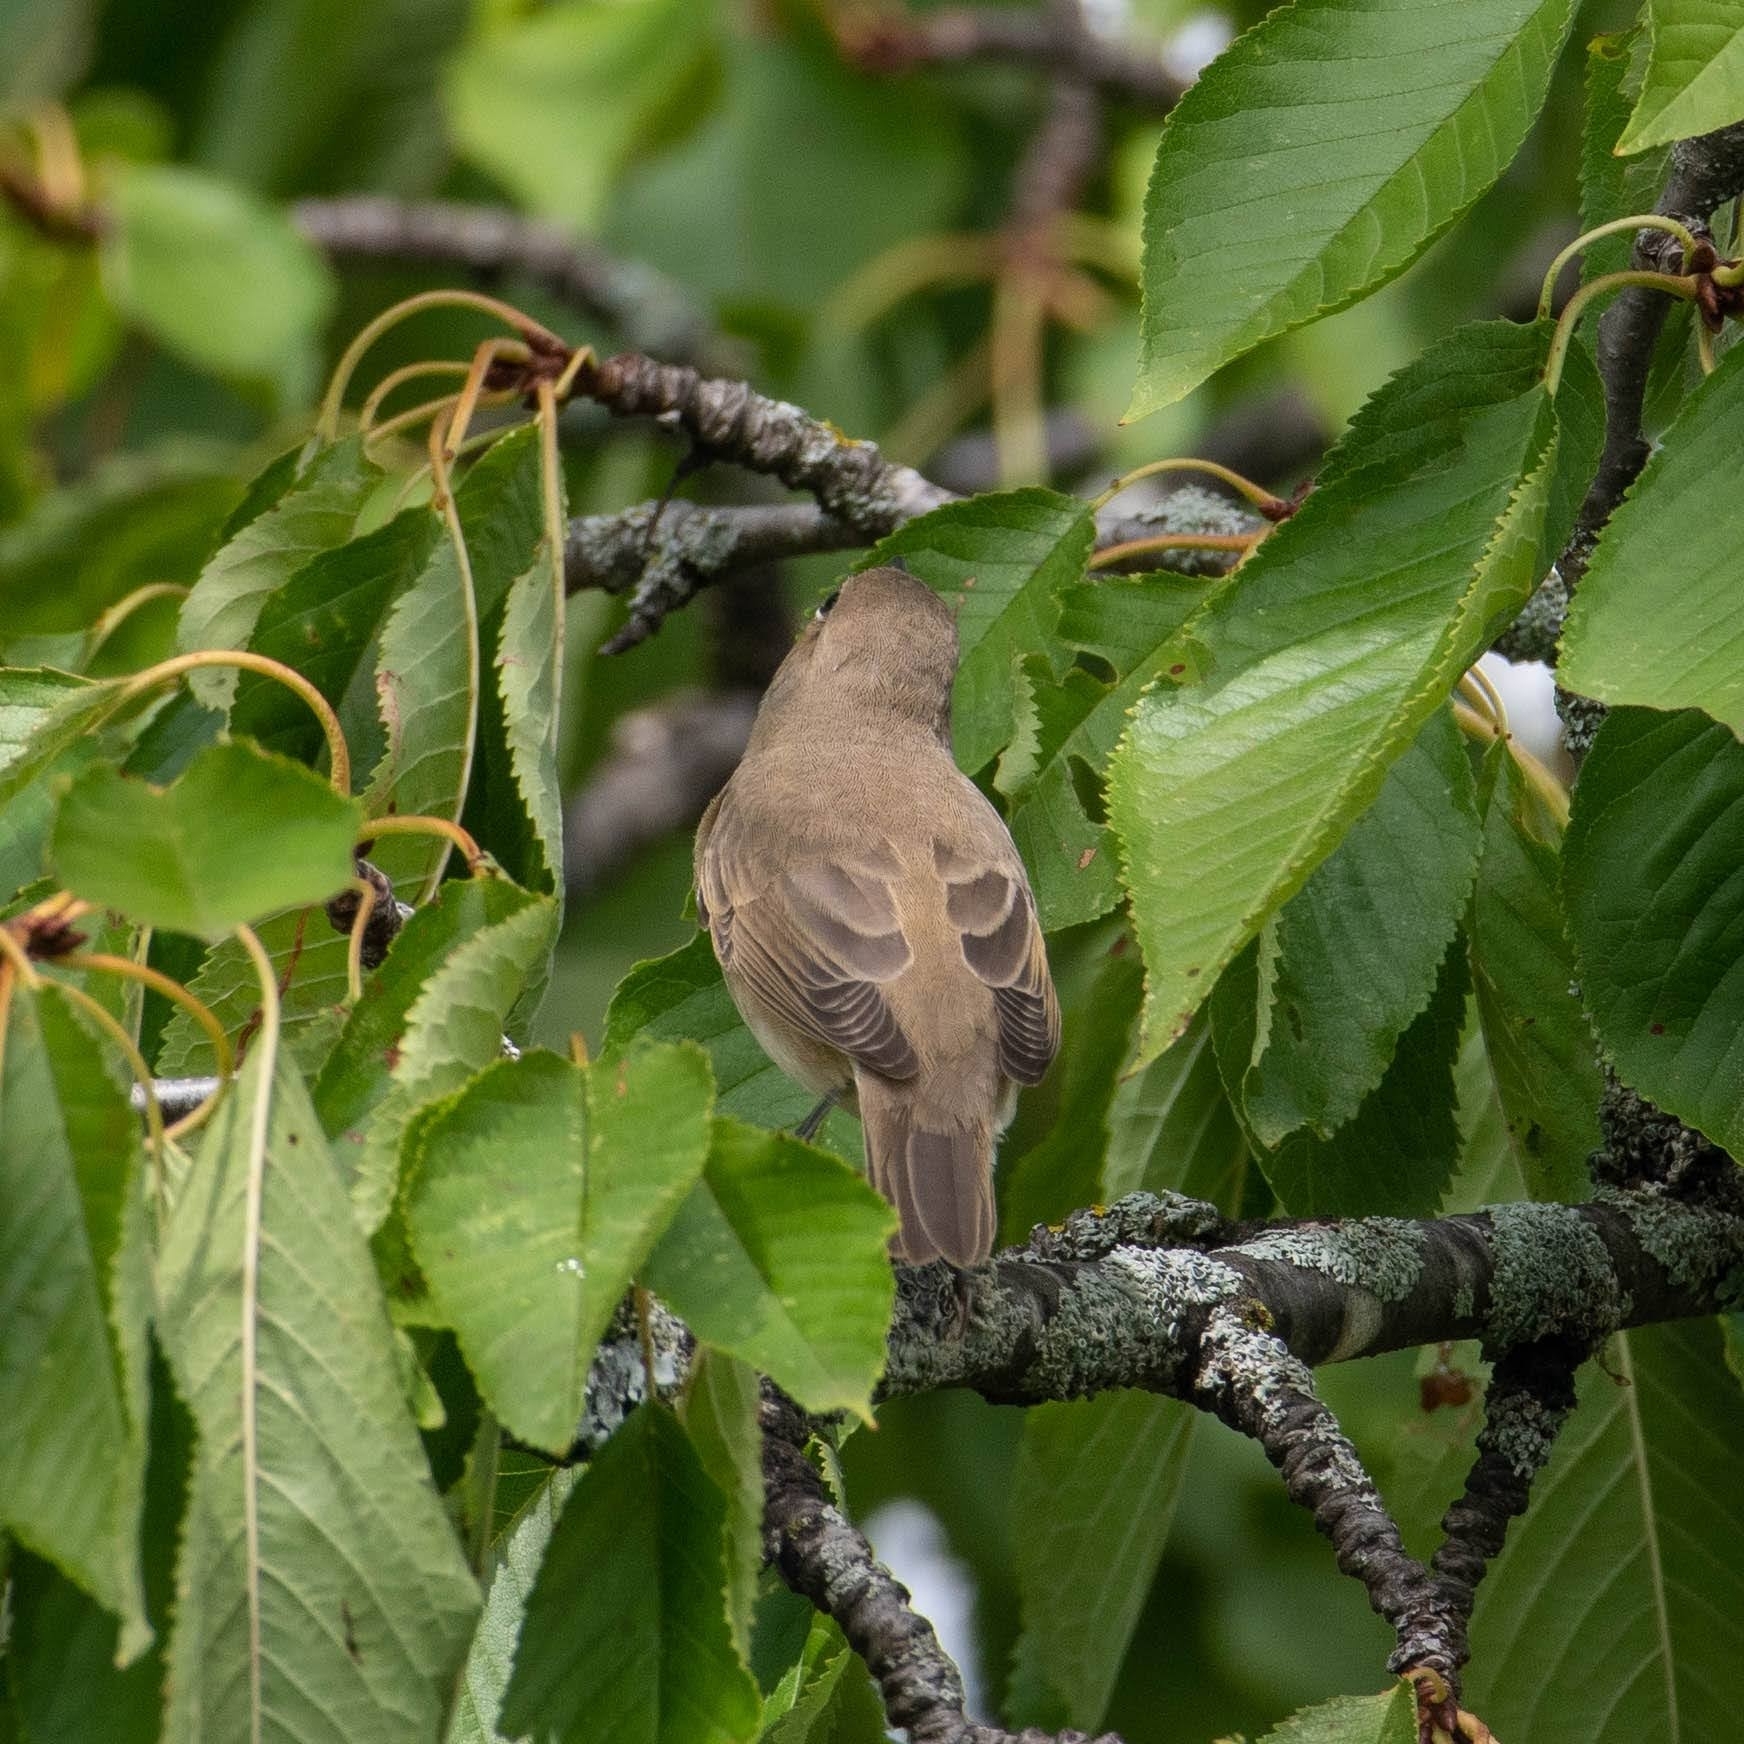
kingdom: Animalia
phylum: Chordata
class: Aves
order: Passeriformes
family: Sylviidae
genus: Sylvia
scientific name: Sylvia borin
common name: Garden warbler
